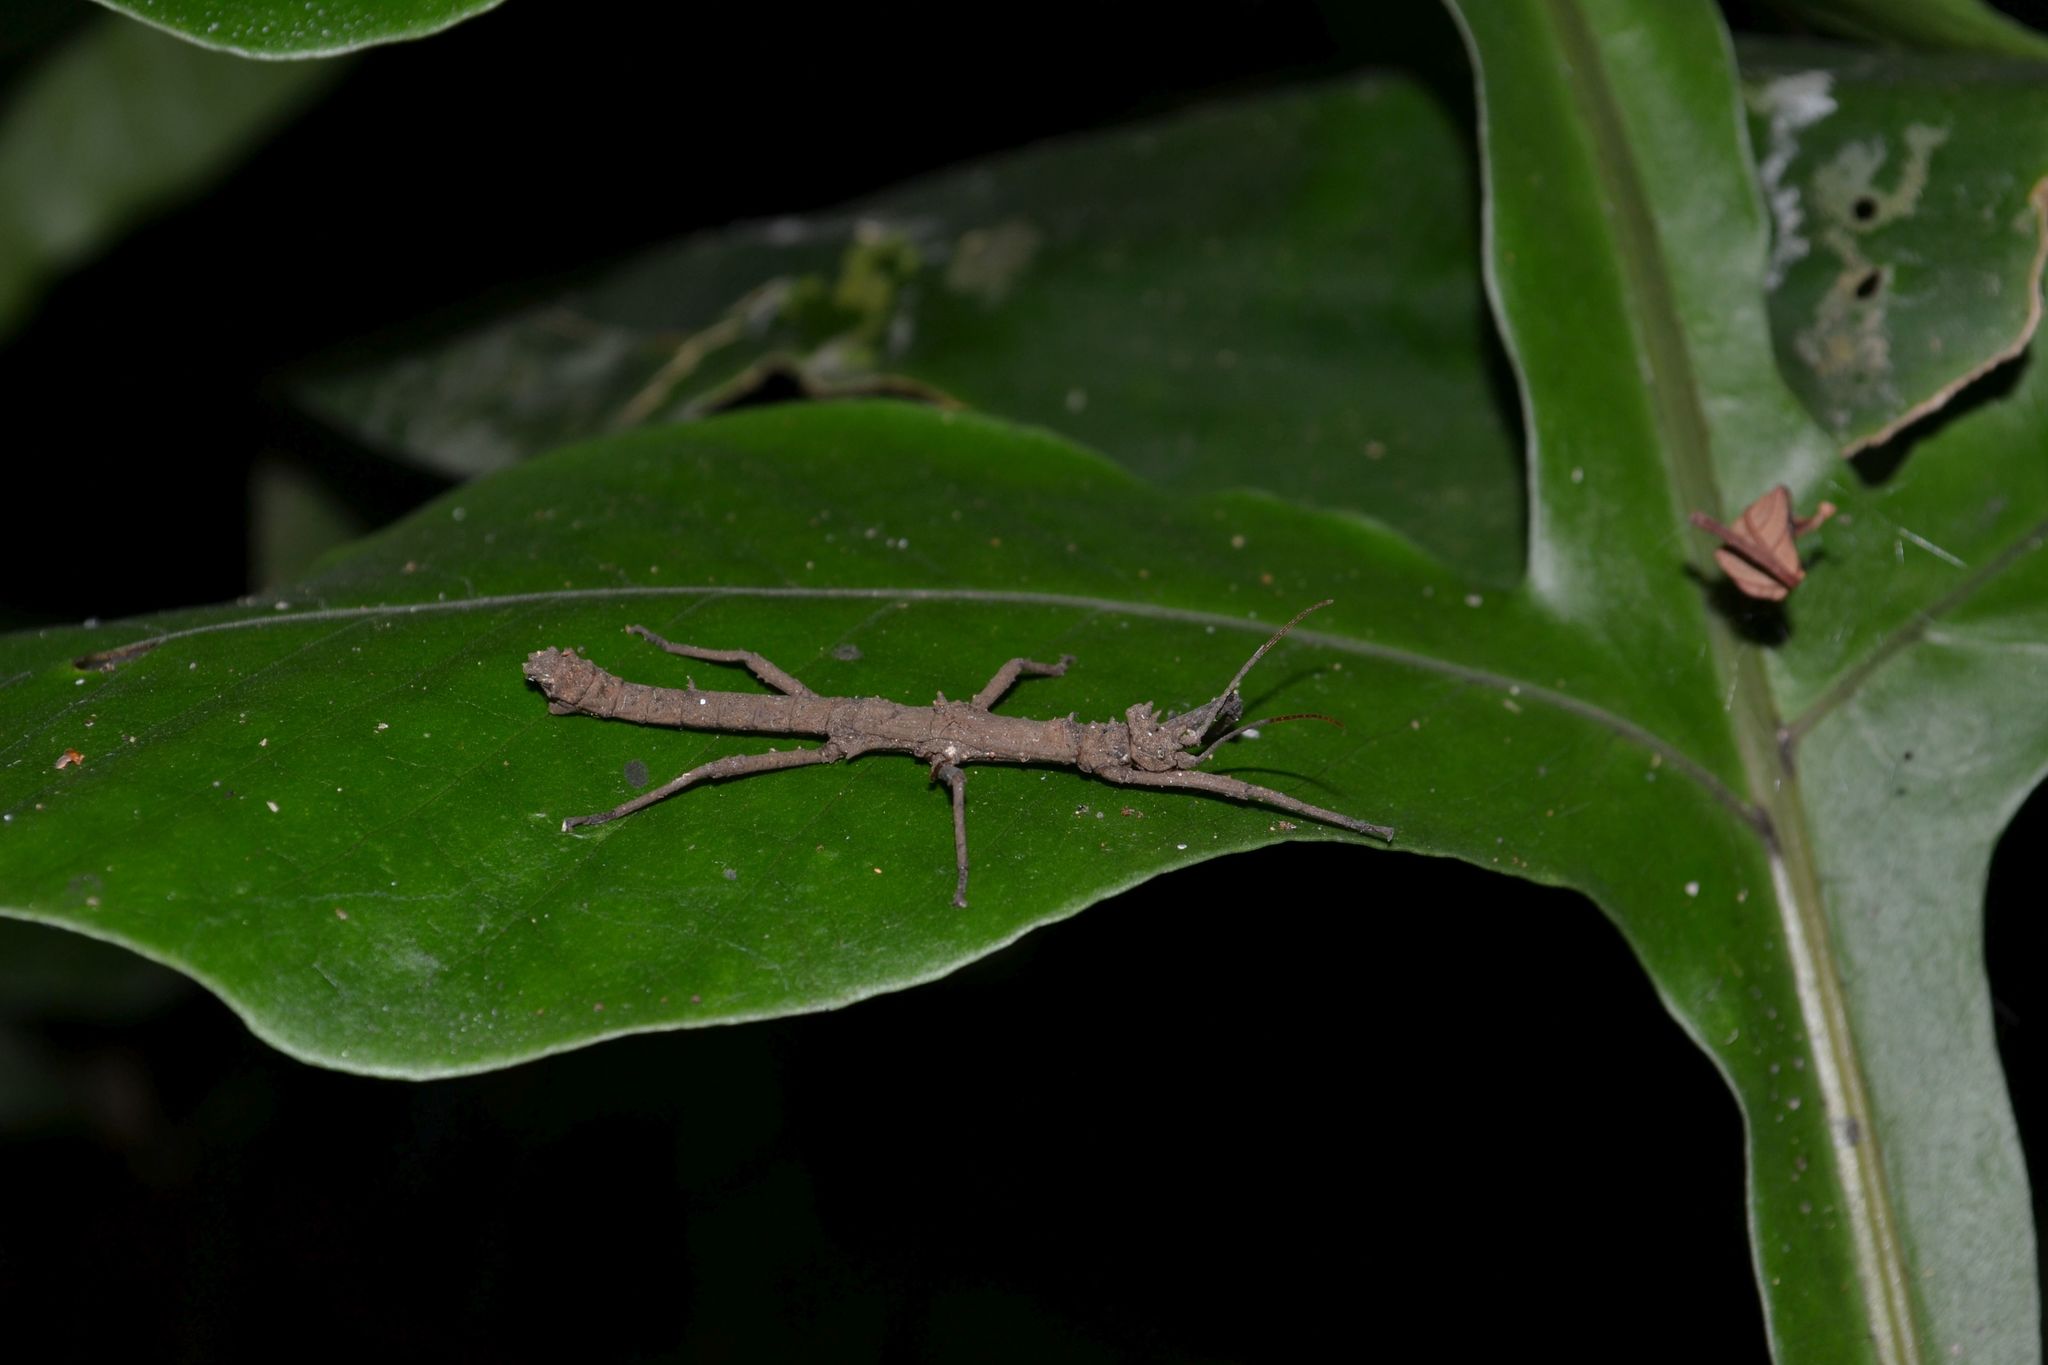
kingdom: Animalia
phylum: Arthropoda
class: Insecta
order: Phasmida
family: Heteropterygidae
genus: Pylaemenes
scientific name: Pylaemenes mitratus
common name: Money plant stick insect
